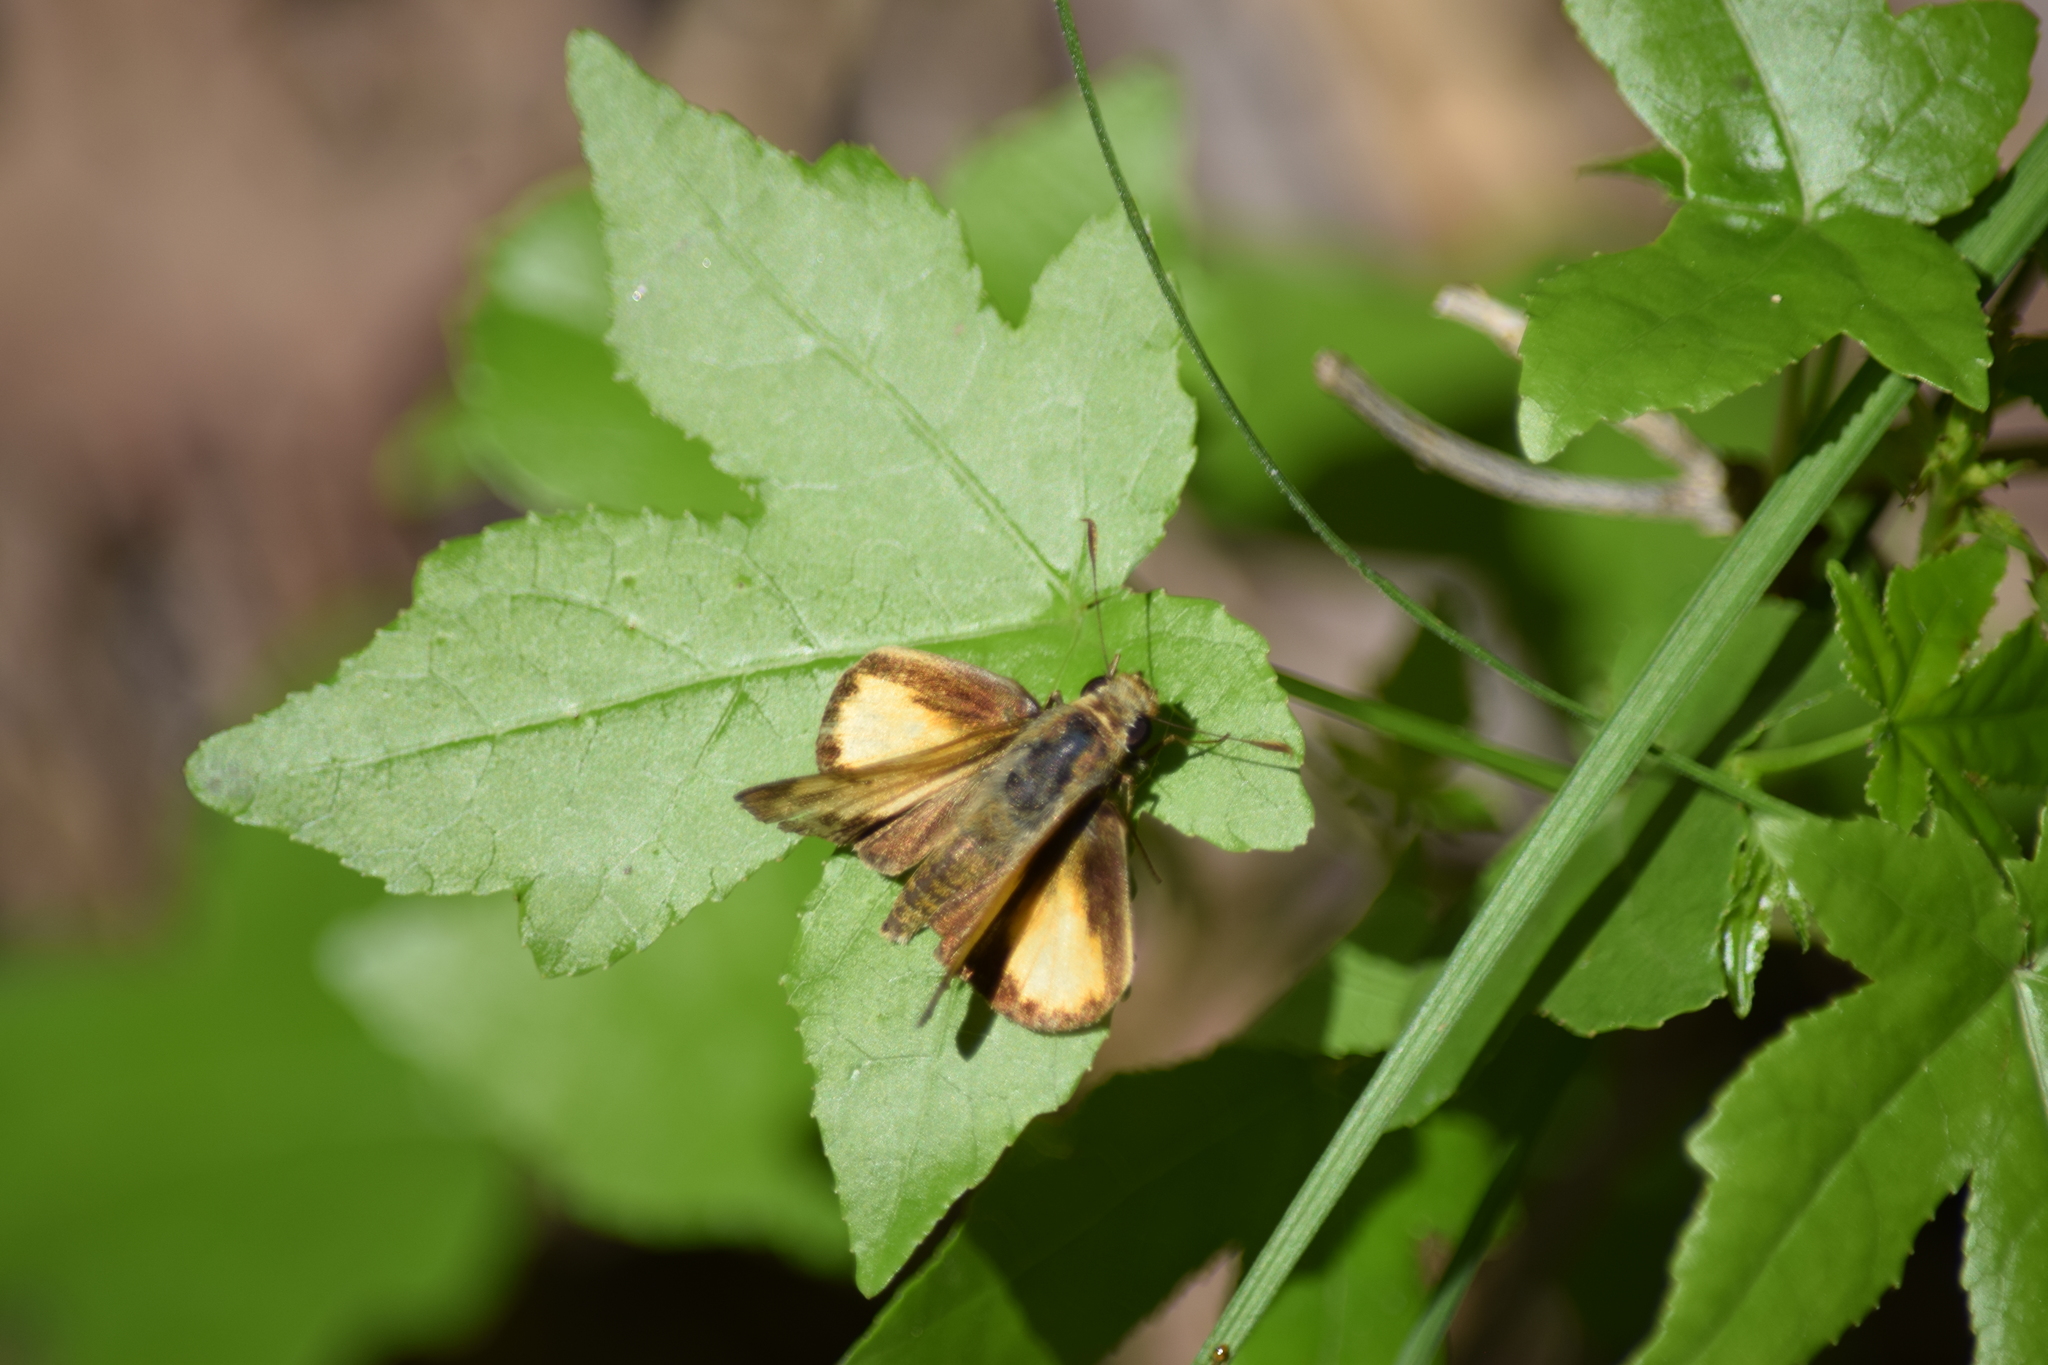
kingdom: Animalia
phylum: Arthropoda
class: Insecta
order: Lepidoptera
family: Hesperiidae
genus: Lon
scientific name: Lon zabulon
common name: Zabulon skipper
